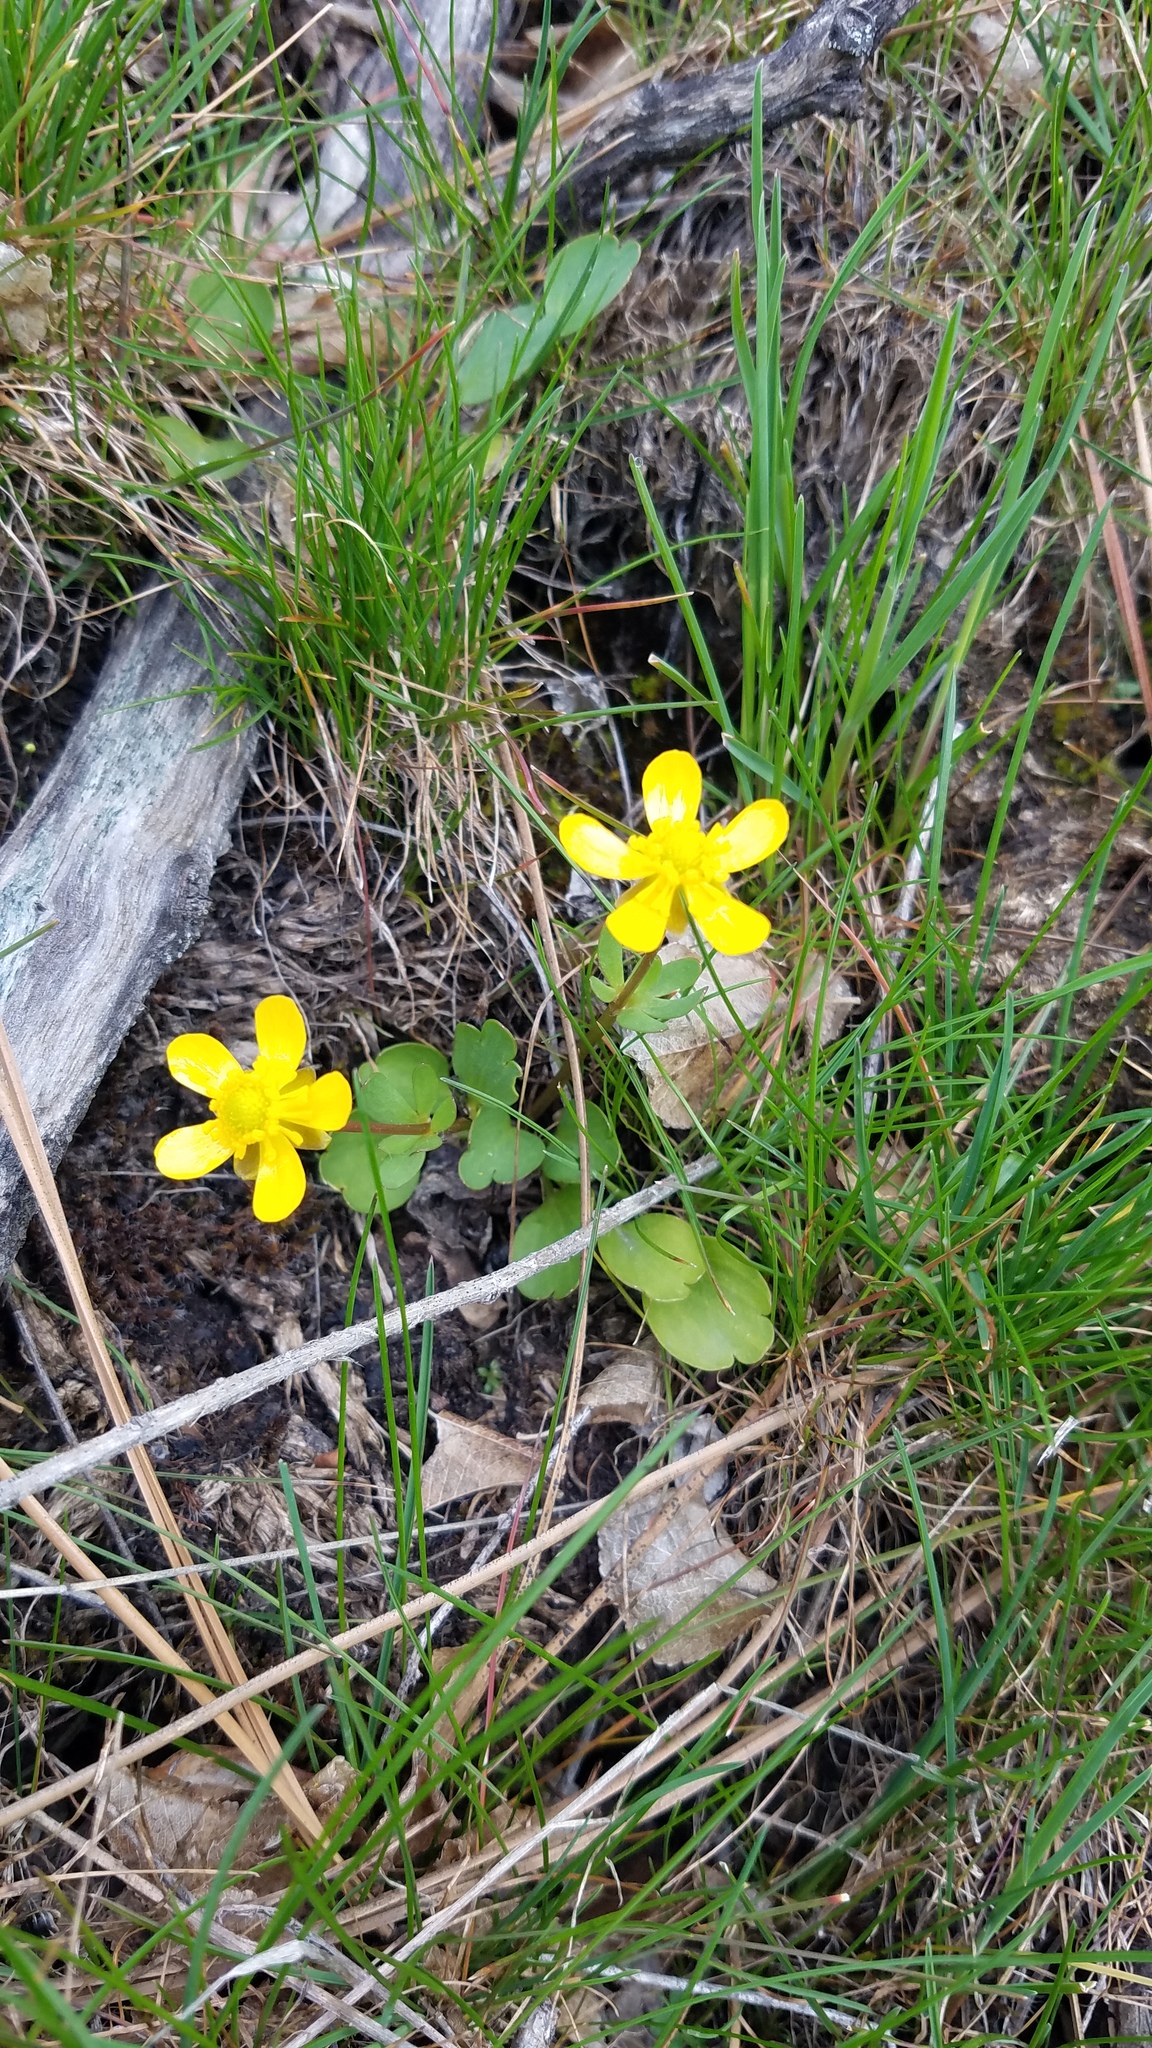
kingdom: Plantae
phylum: Tracheophyta
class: Magnoliopsida
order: Ranunculales
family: Ranunculaceae
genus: Ranunculus
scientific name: Ranunculus glaberrimus
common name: Sagebrush buttercup
